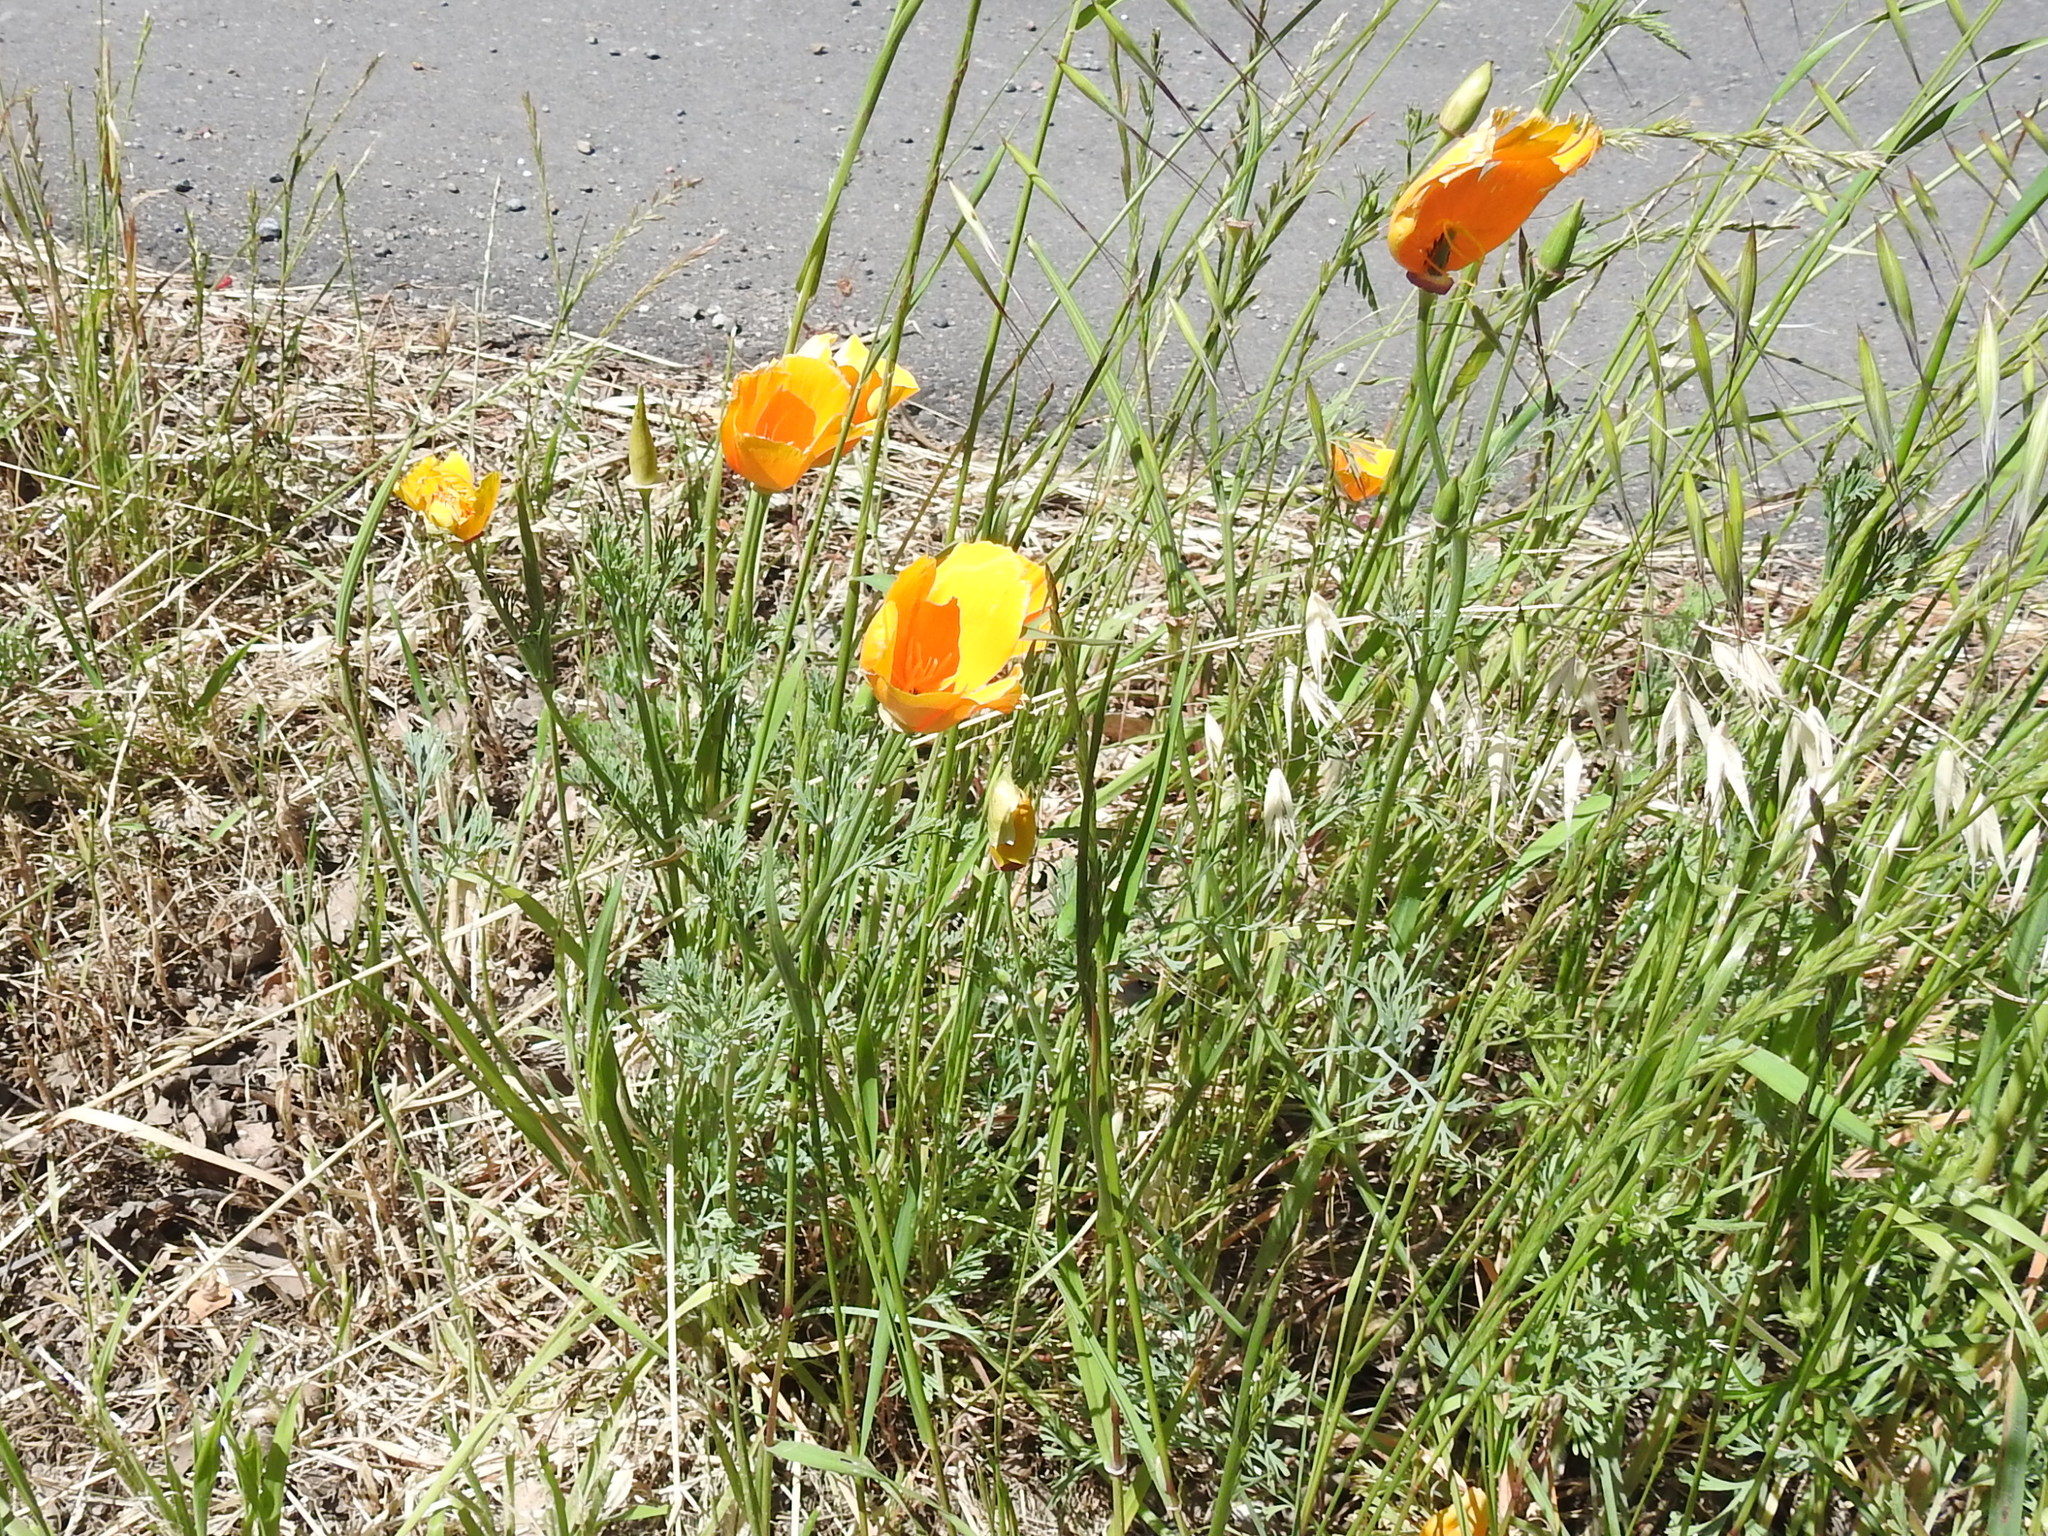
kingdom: Plantae
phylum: Tracheophyta
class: Magnoliopsida
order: Ranunculales
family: Papaveraceae
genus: Eschscholzia
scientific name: Eschscholzia californica
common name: California poppy
